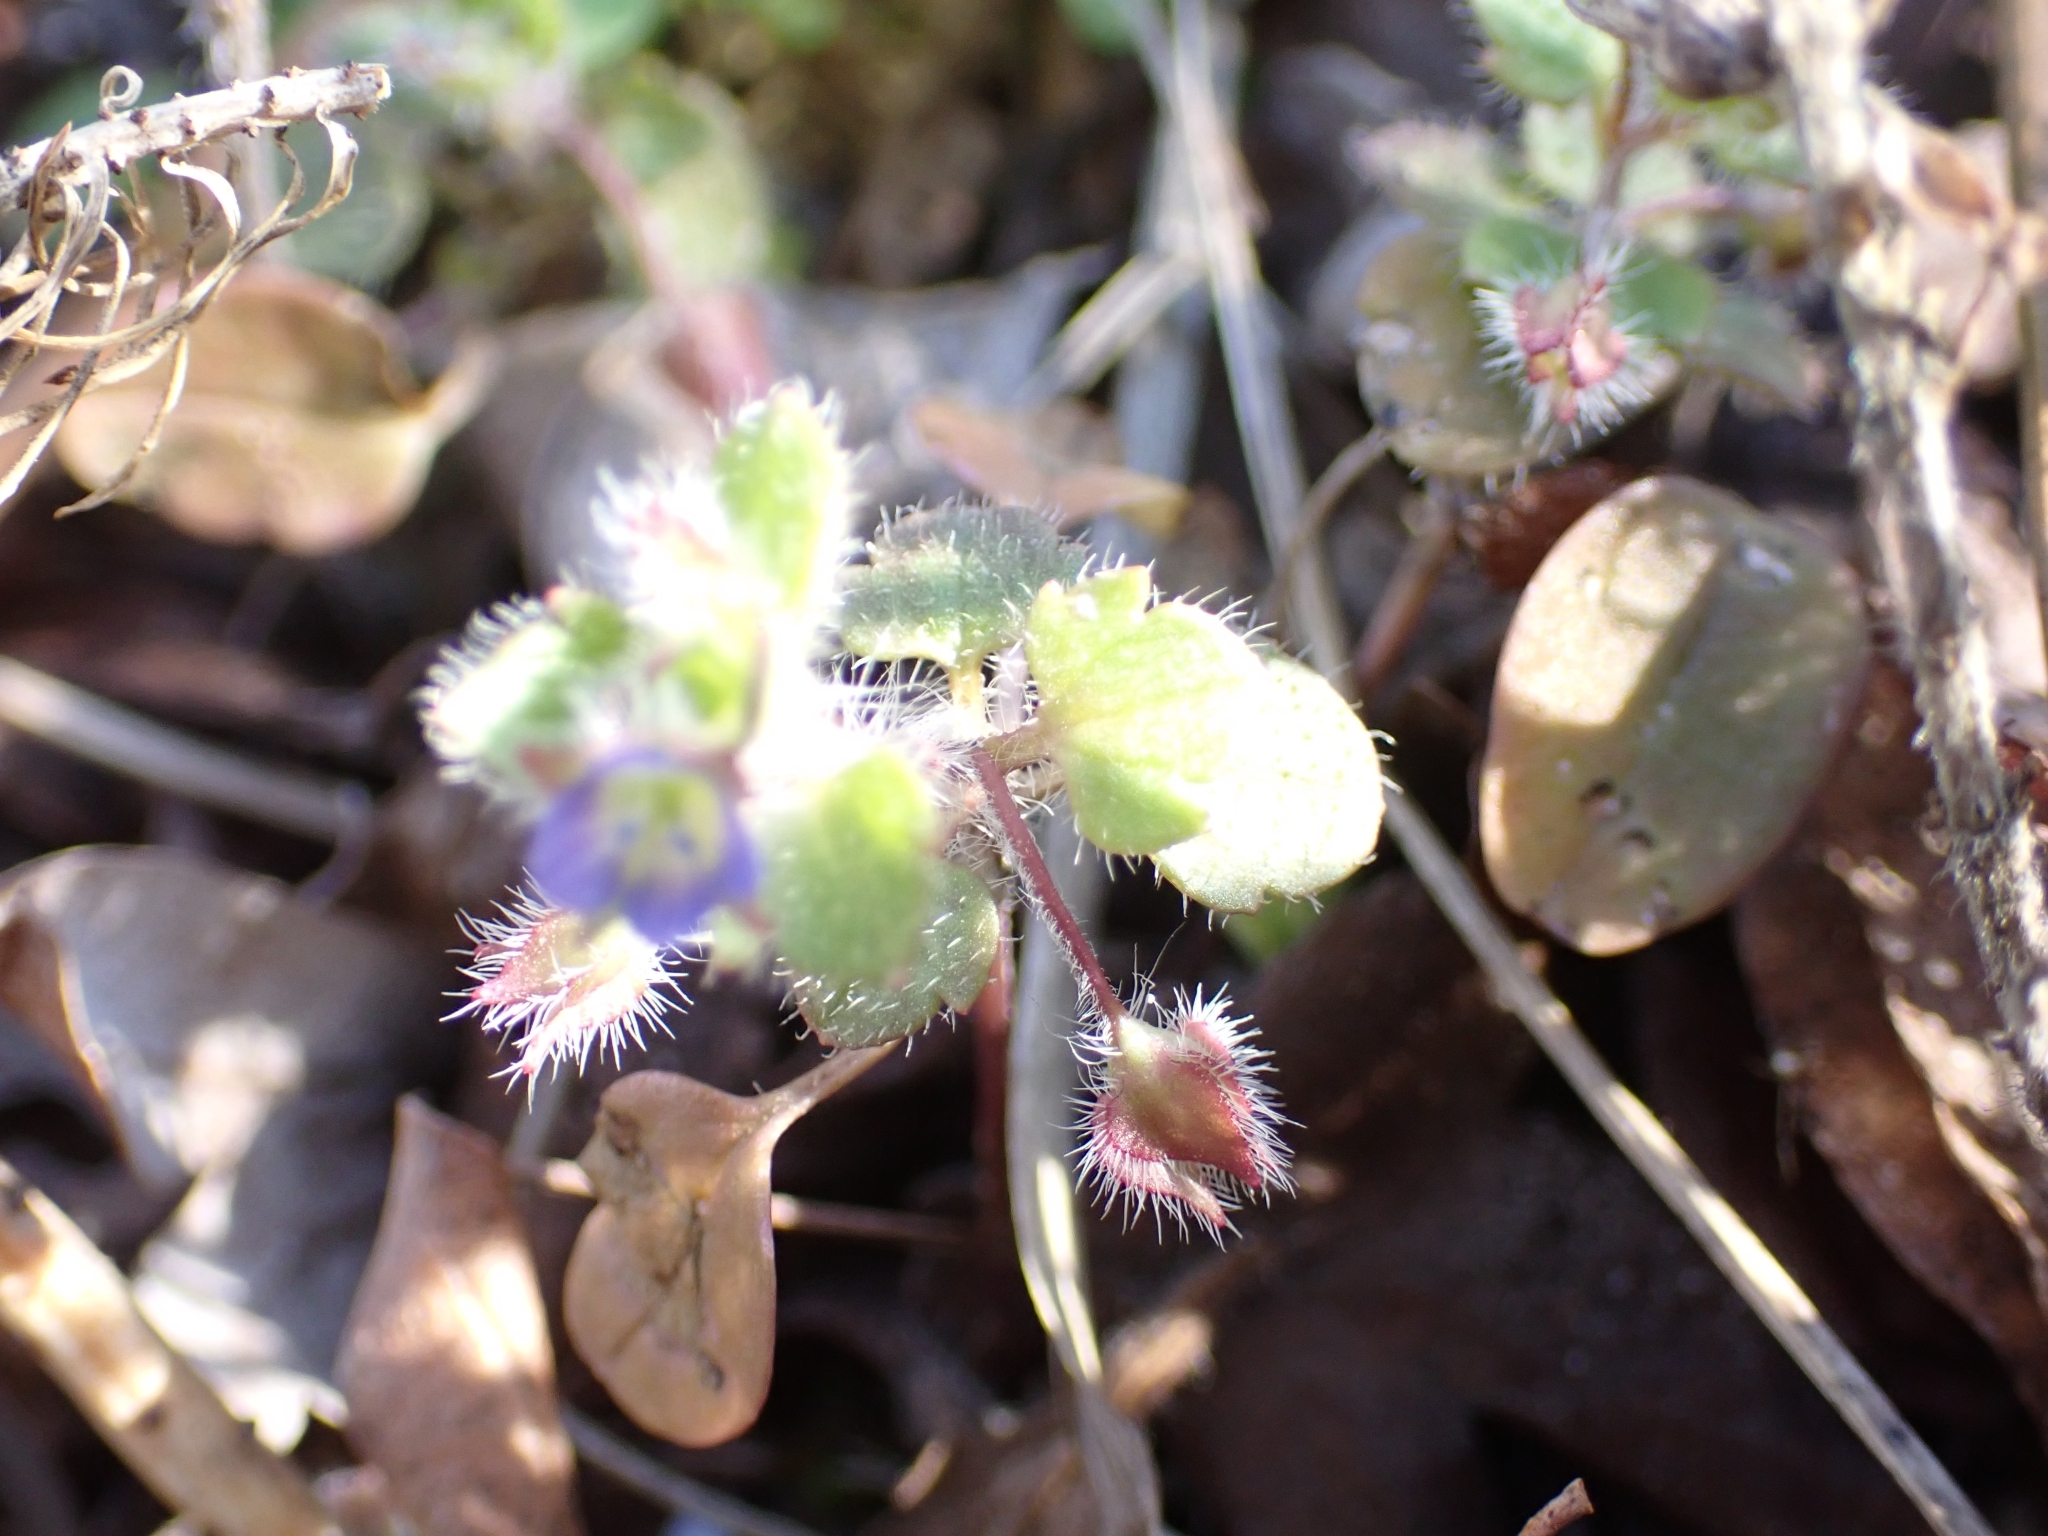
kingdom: Plantae
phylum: Tracheophyta
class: Magnoliopsida
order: Lamiales
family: Plantaginaceae
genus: Veronica
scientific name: Veronica hederifolia
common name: Ivy-leaved speedwell
